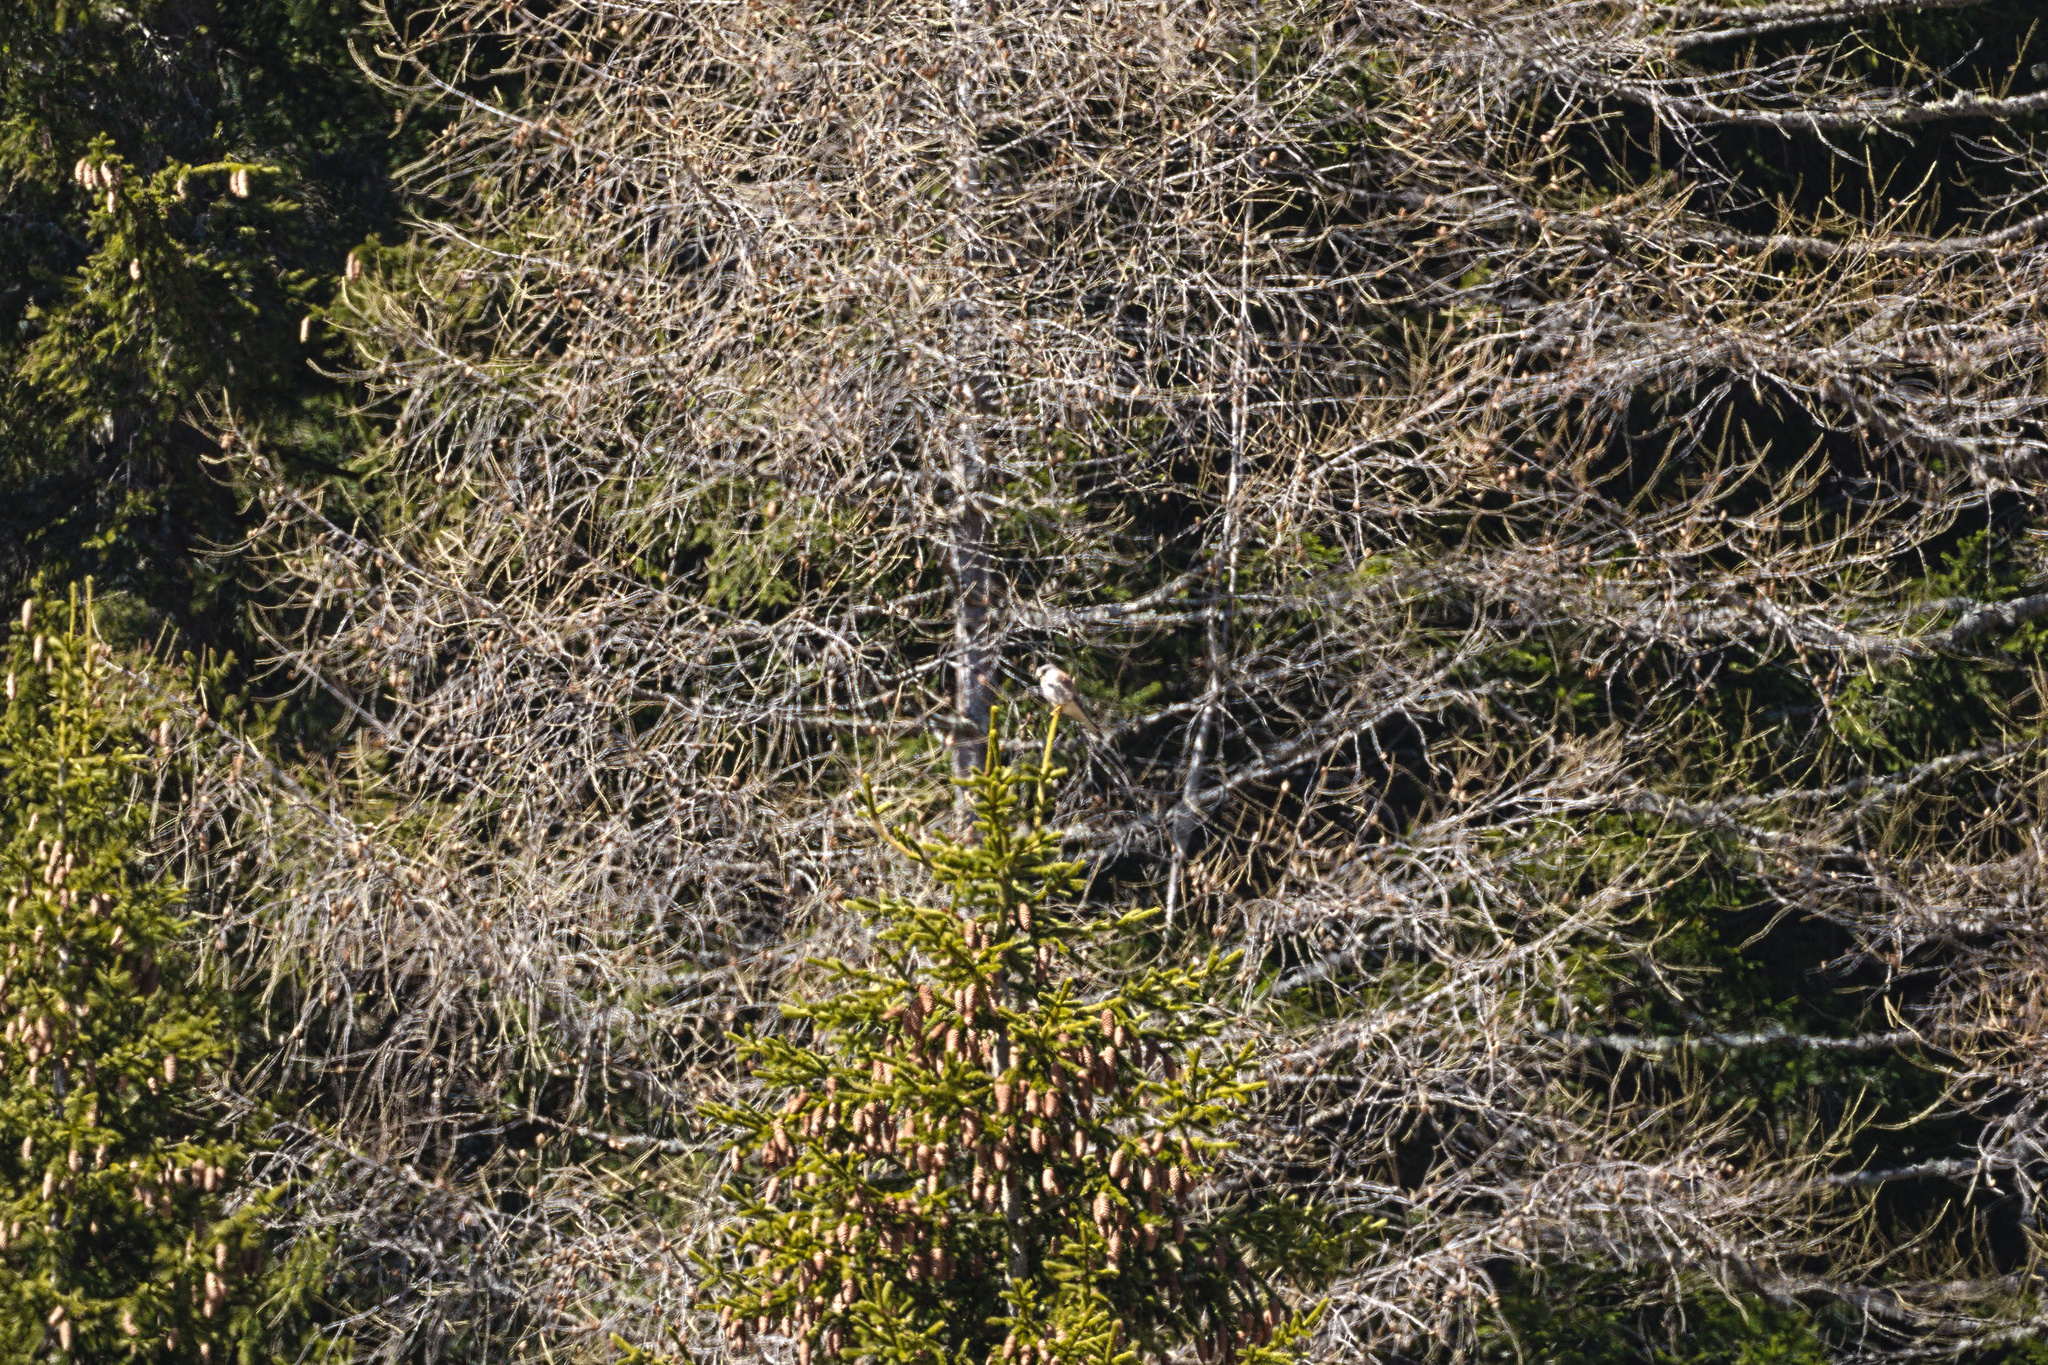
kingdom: Animalia
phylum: Chordata
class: Aves
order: Falconiformes
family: Falconidae
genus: Falco
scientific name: Falco tinnunculus
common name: Common kestrel
